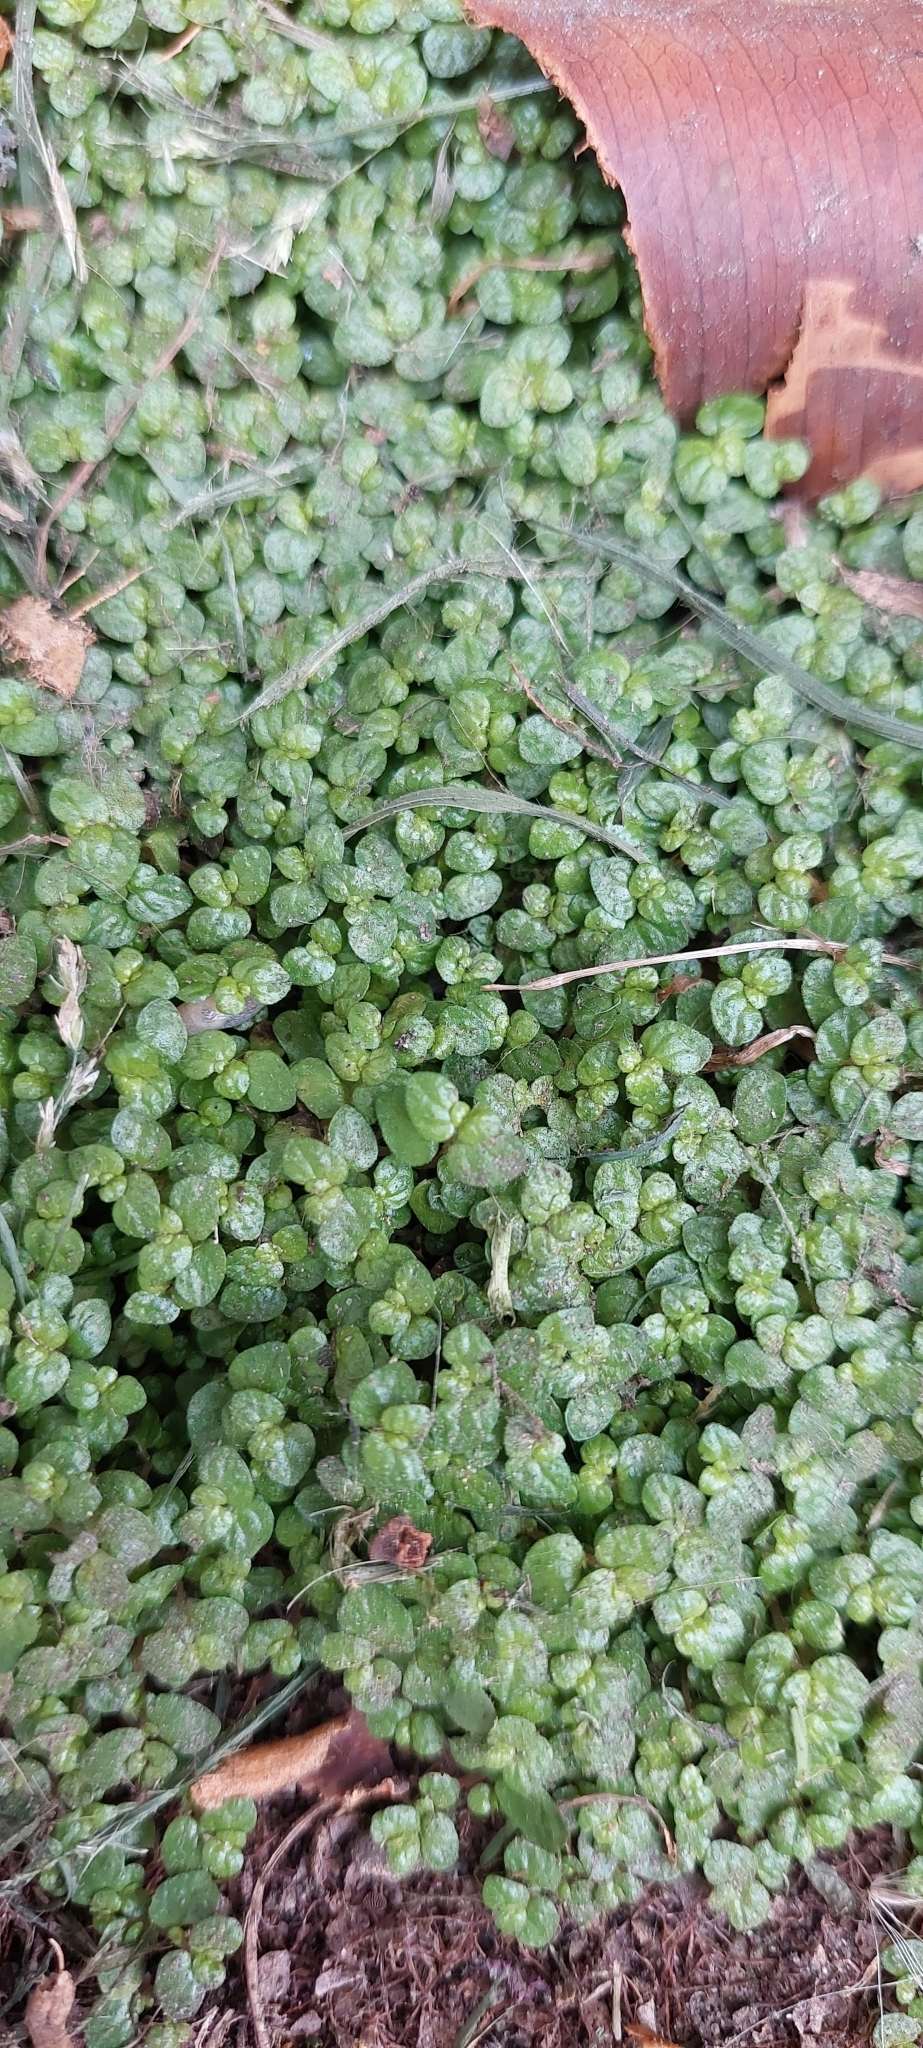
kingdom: Plantae
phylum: Tracheophyta
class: Magnoliopsida
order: Rosales
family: Urticaceae
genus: Soleirolia
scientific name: Soleirolia soleirolii
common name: Mind-your-own-business
